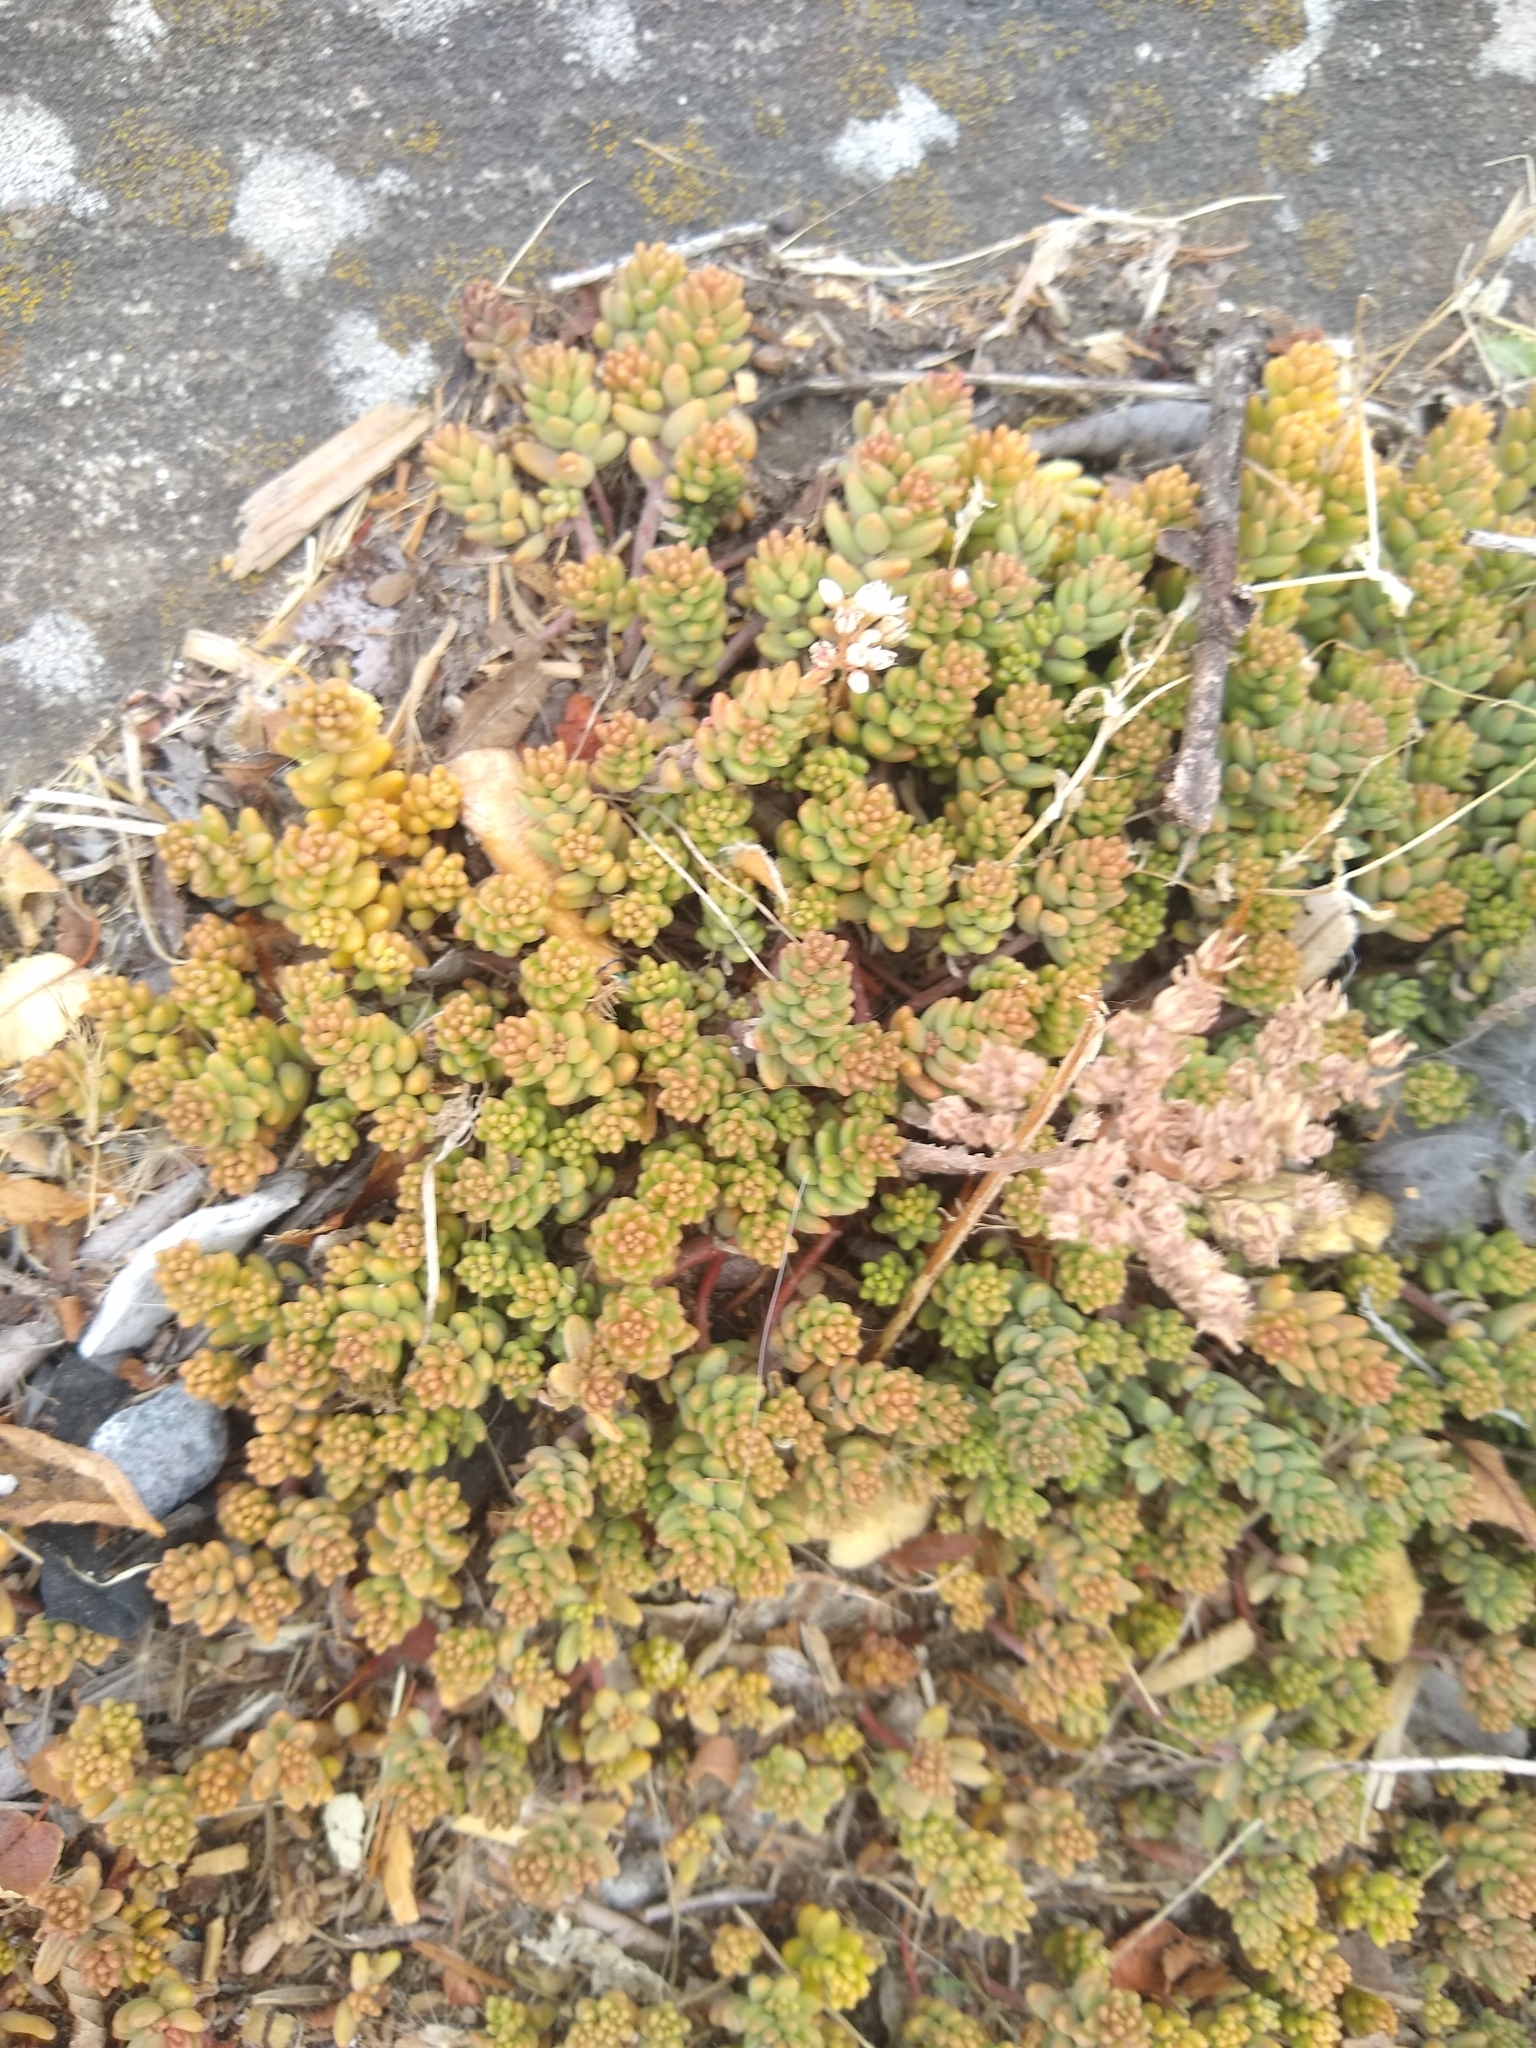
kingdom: Plantae
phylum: Tracheophyta
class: Magnoliopsida
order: Saxifragales
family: Crassulaceae
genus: Sedum
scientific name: Sedum album
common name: White stonecrop
